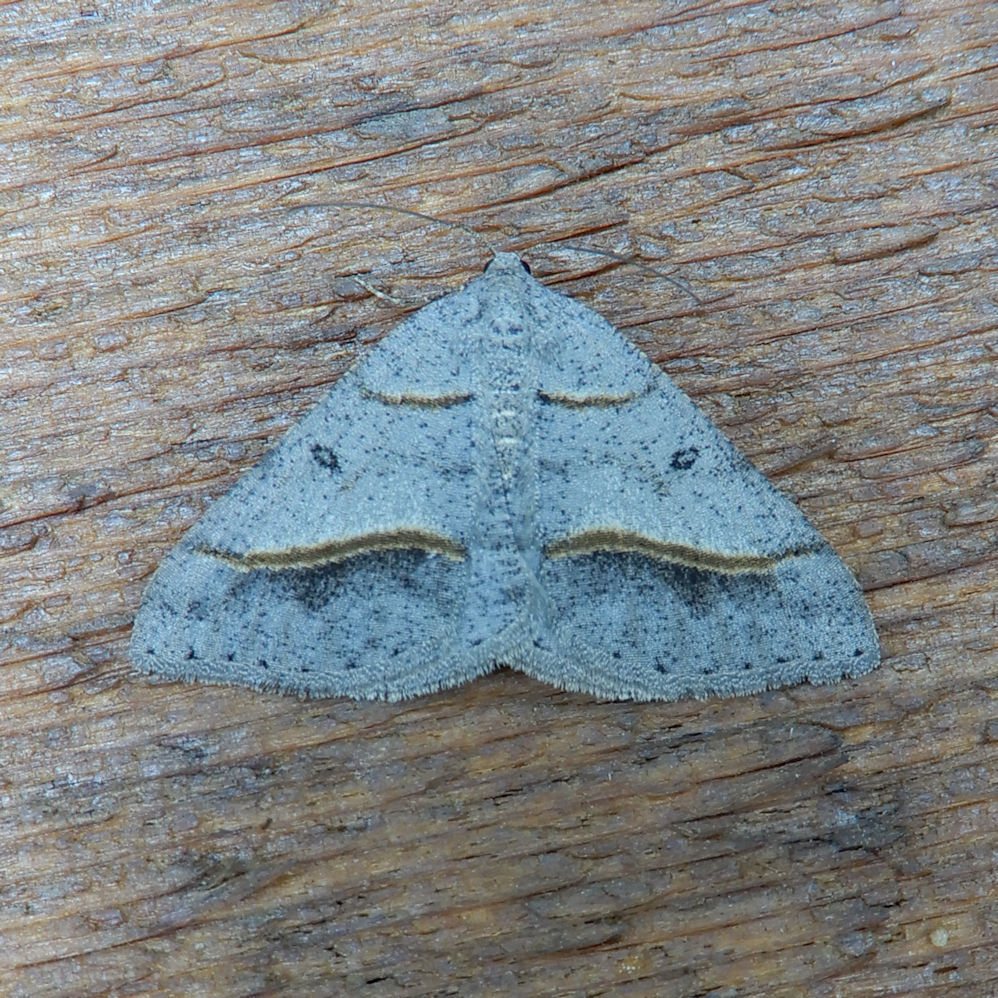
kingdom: Animalia
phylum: Arthropoda
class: Insecta
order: Lepidoptera
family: Geometridae
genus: Digrammia
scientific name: Digrammia neptaria
